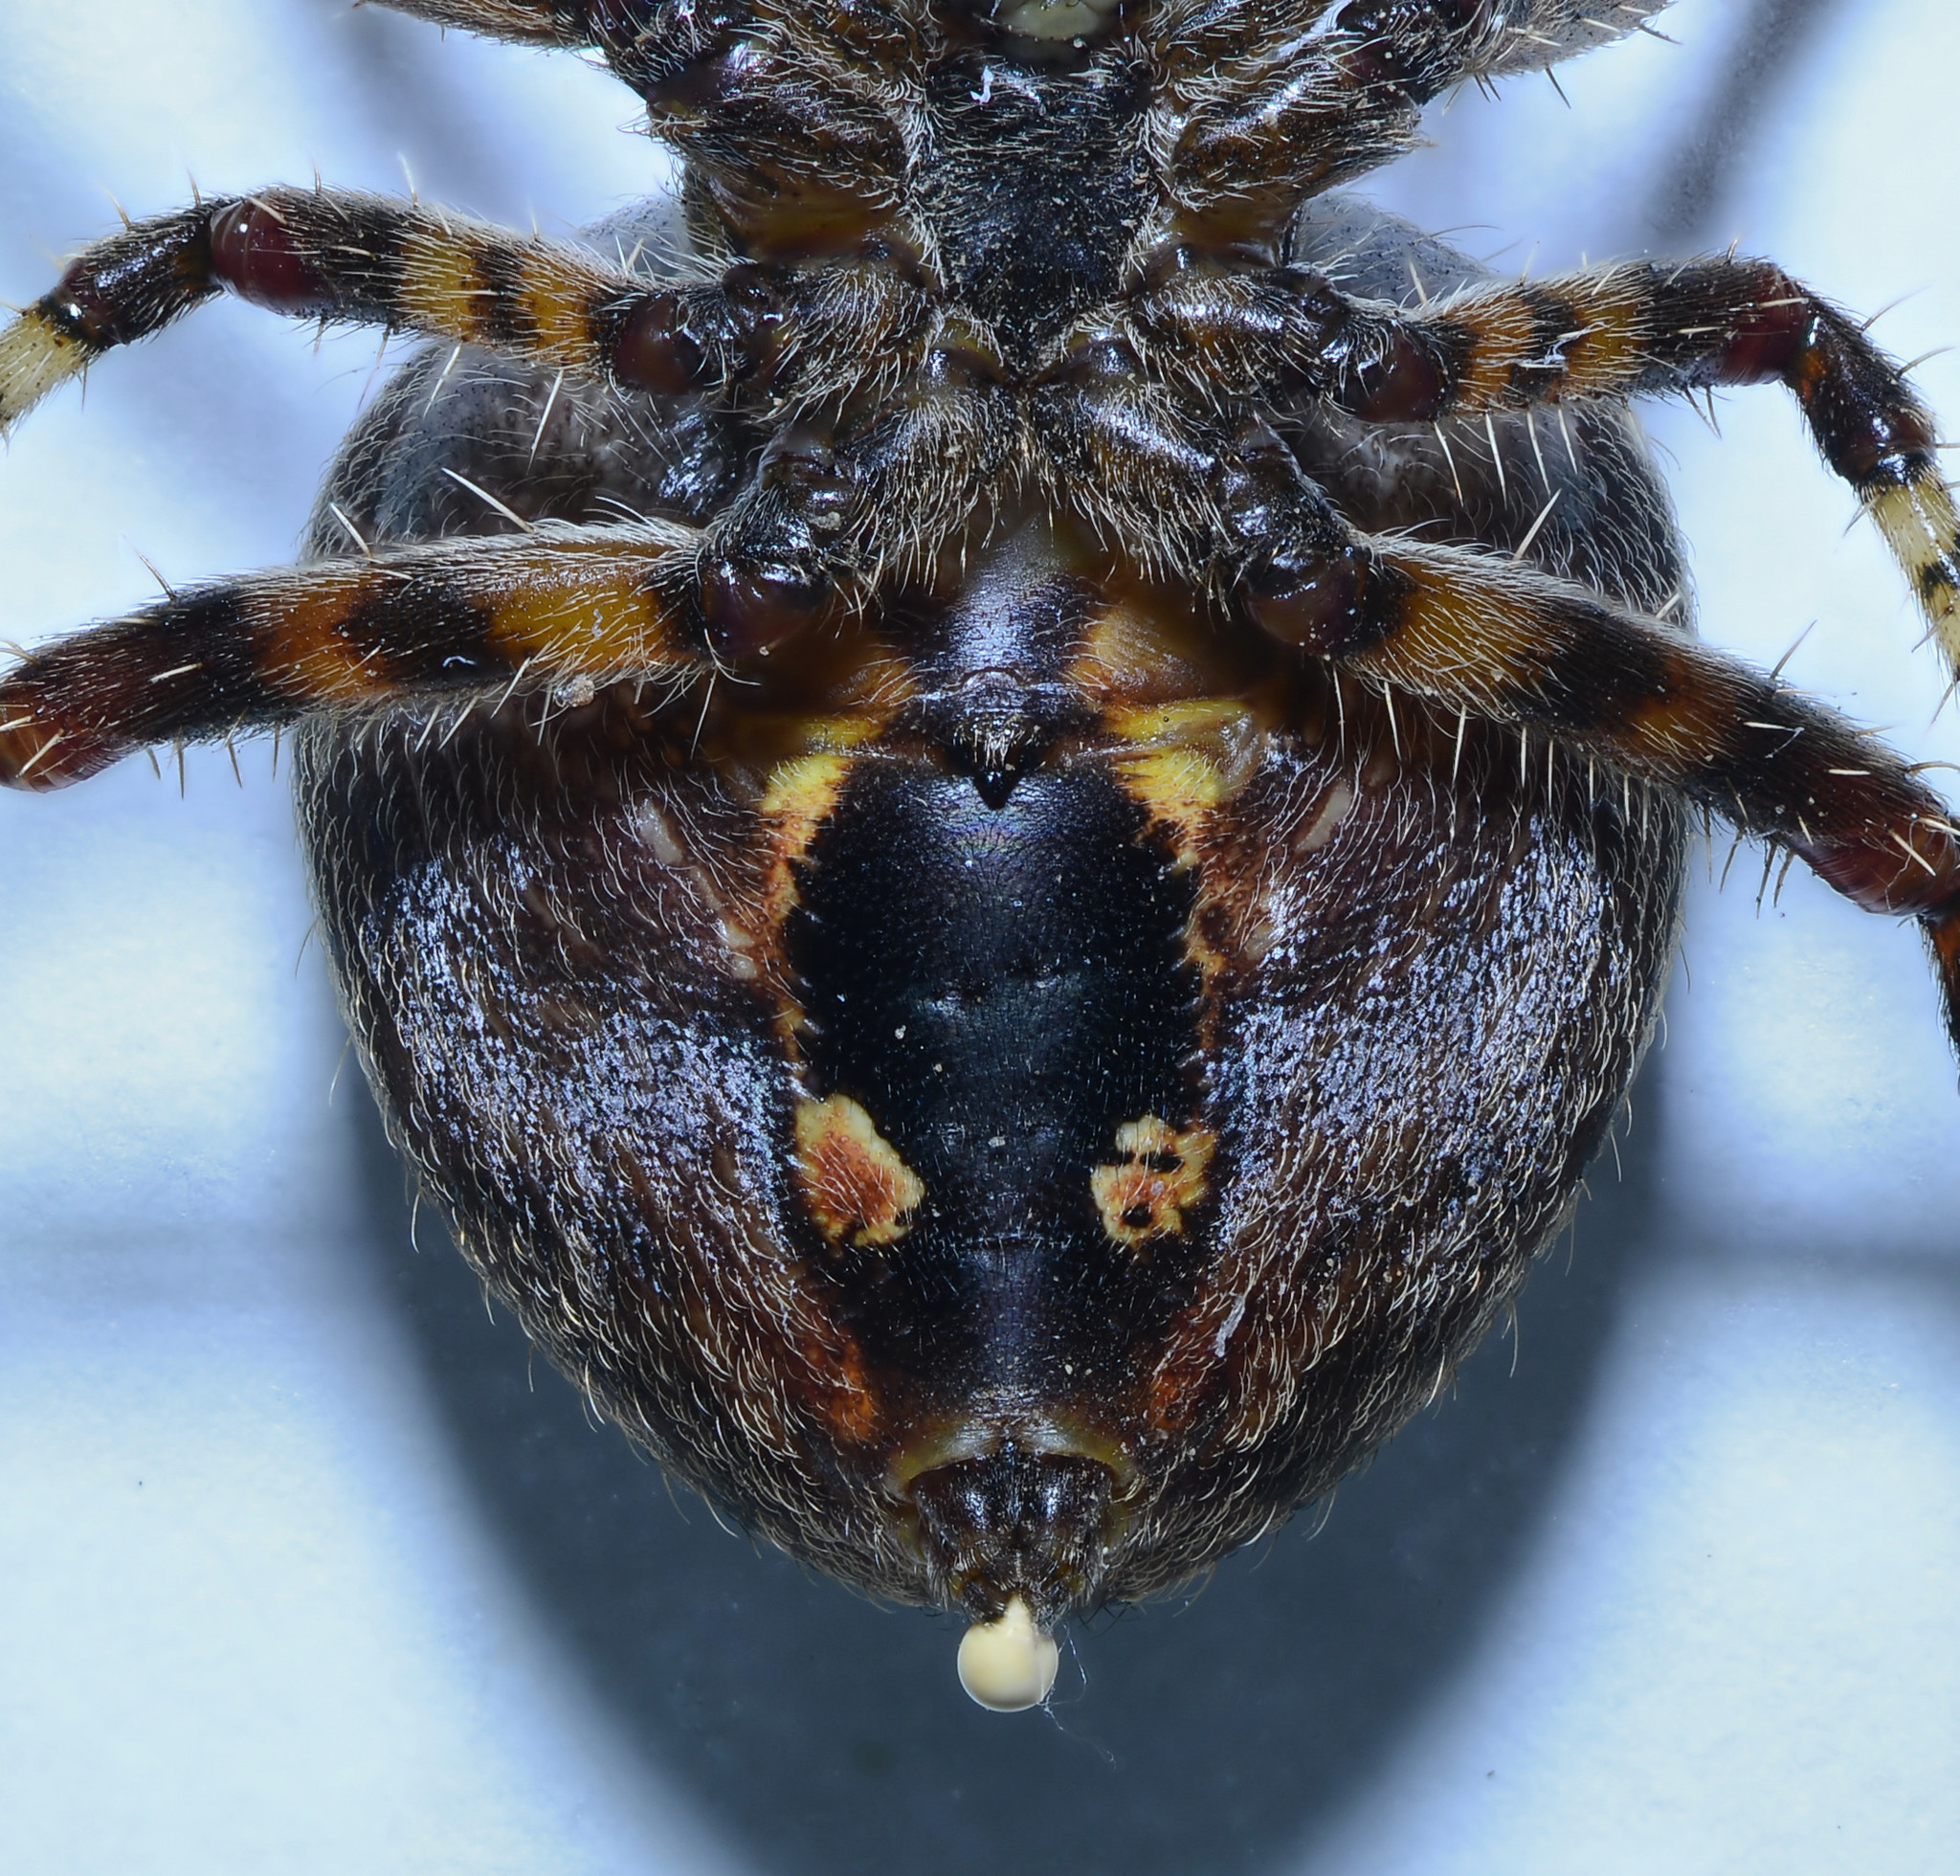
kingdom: Animalia
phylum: Arthropoda
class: Arachnida
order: Araneae
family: Araneidae
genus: Araneus
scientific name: Araneus gemma
